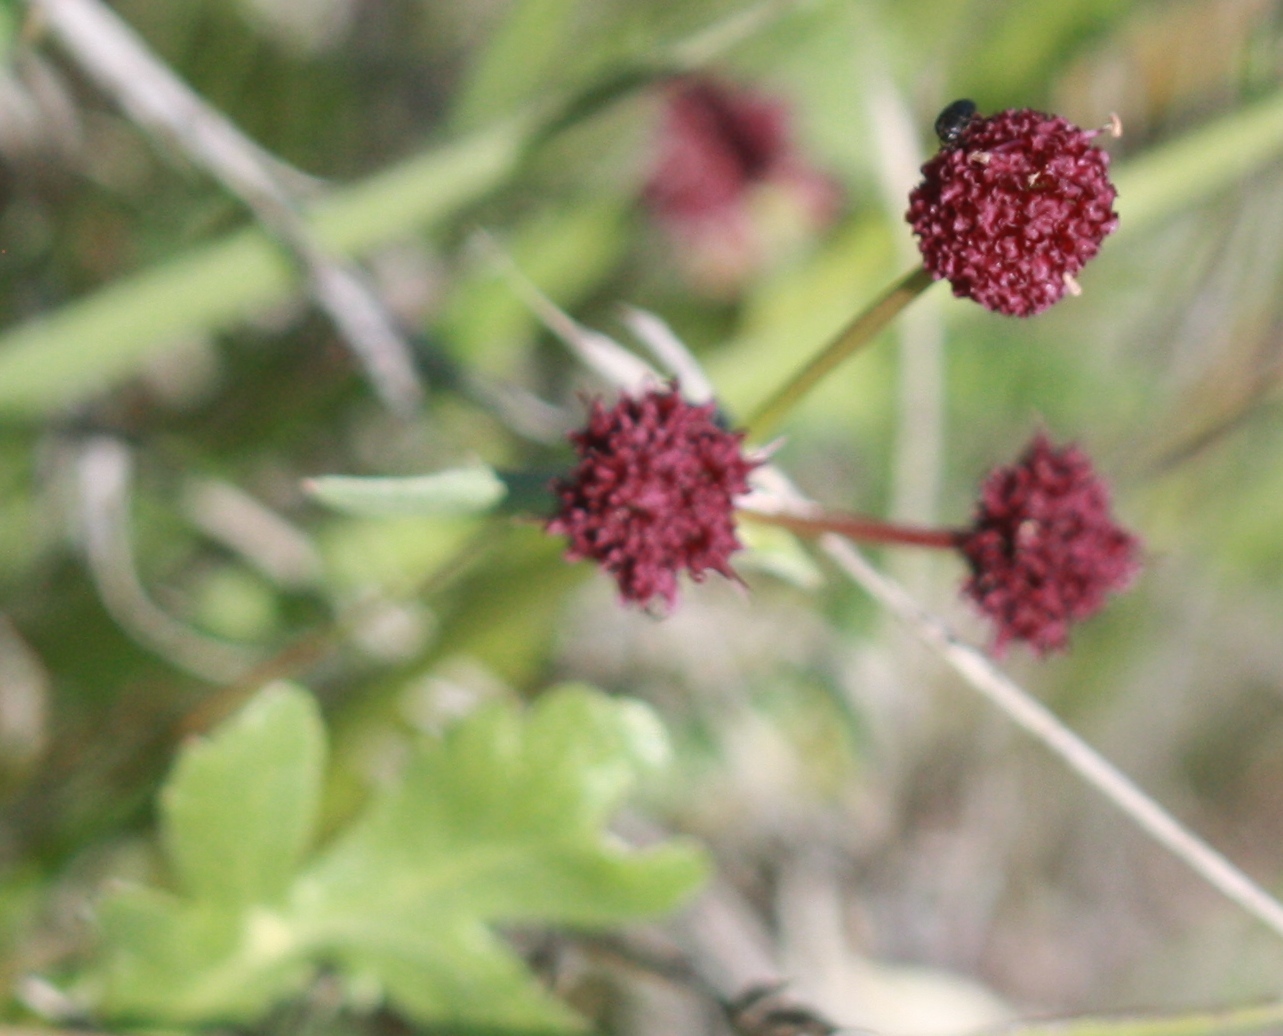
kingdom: Plantae
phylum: Tracheophyta
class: Magnoliopsida
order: Apiales
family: Apiaceae
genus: Sanicula
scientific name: Sanicula bipinnatifida
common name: Shoe-buttons
